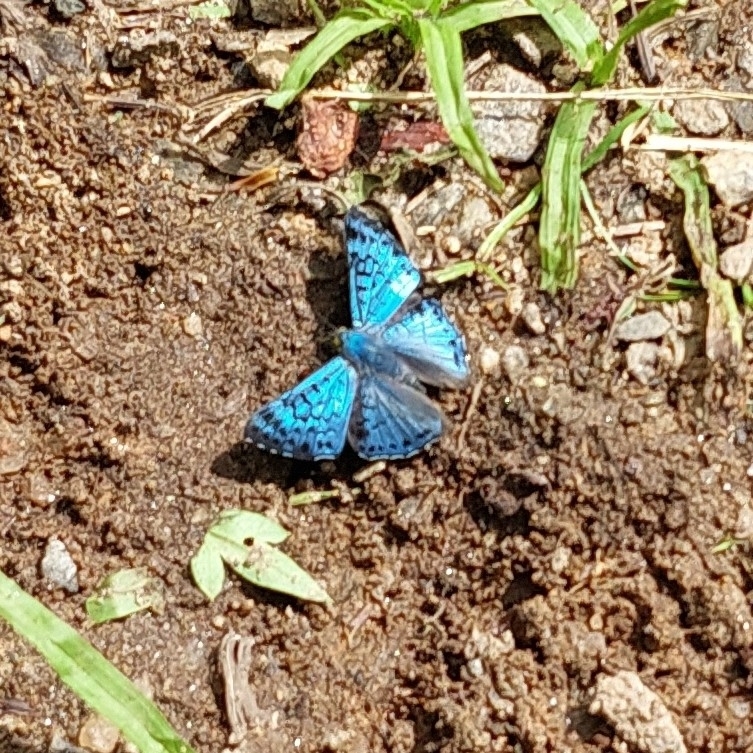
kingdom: Animalia
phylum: Arthropoda
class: Insecta
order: Lepidoptera
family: Riodinidae
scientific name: Riodinidae
